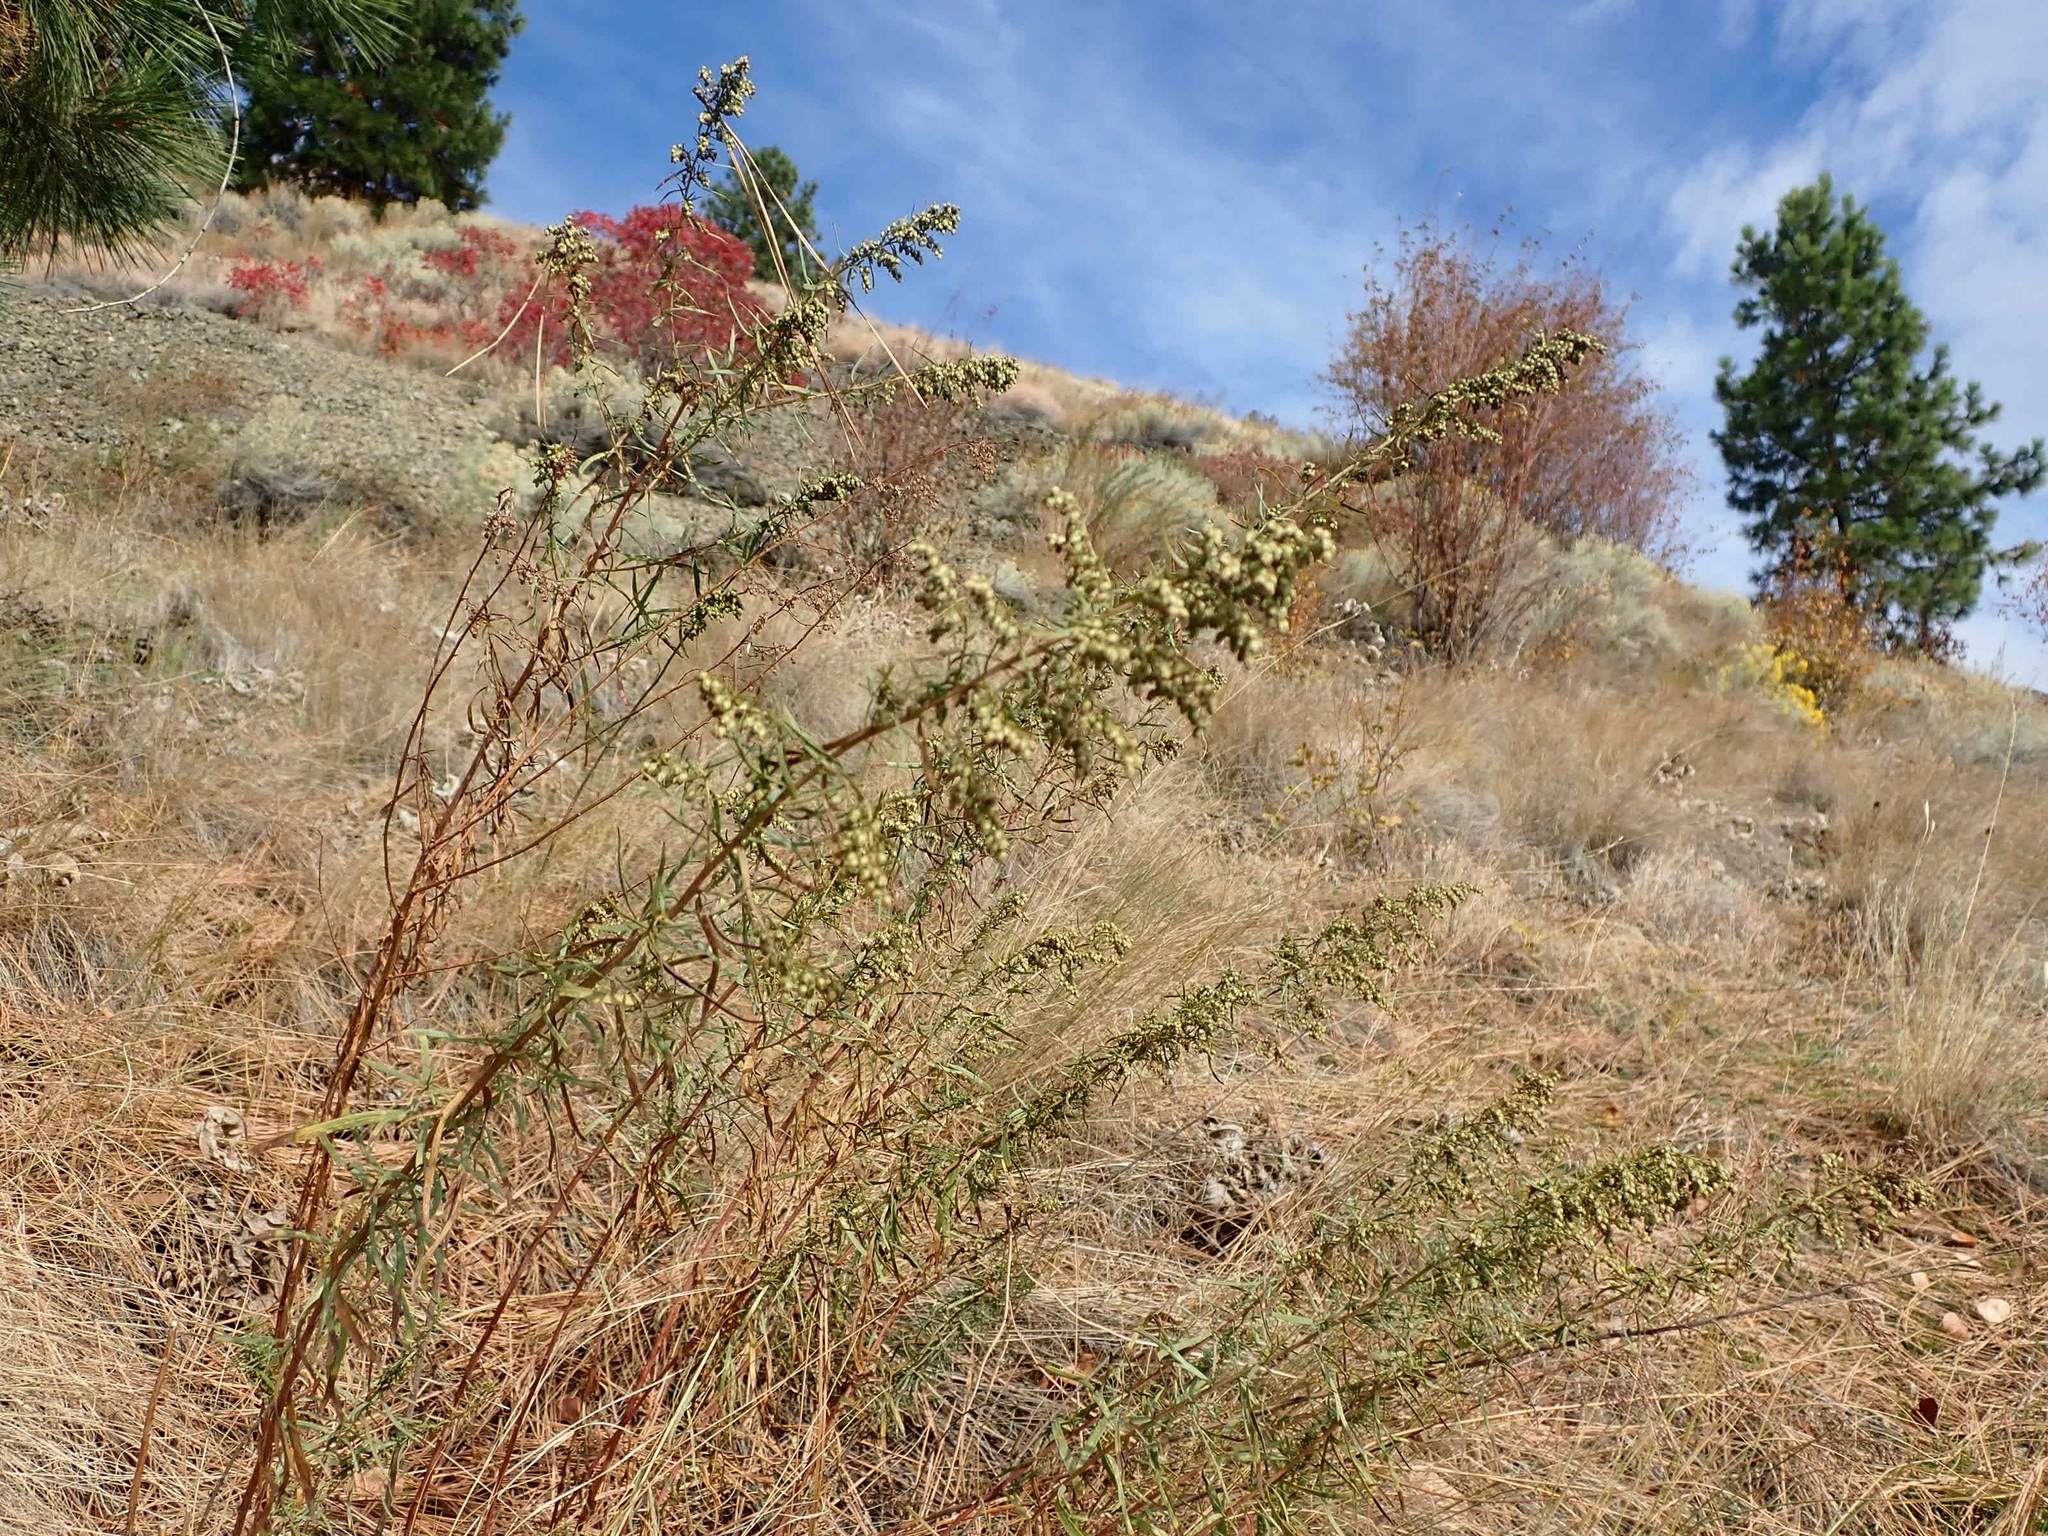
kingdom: Plantae
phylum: Tracheophyta
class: Magnoliopsida
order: Asterales
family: Asteraceae
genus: Artemisia
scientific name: Artemisia dracunculus
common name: Tarragon
